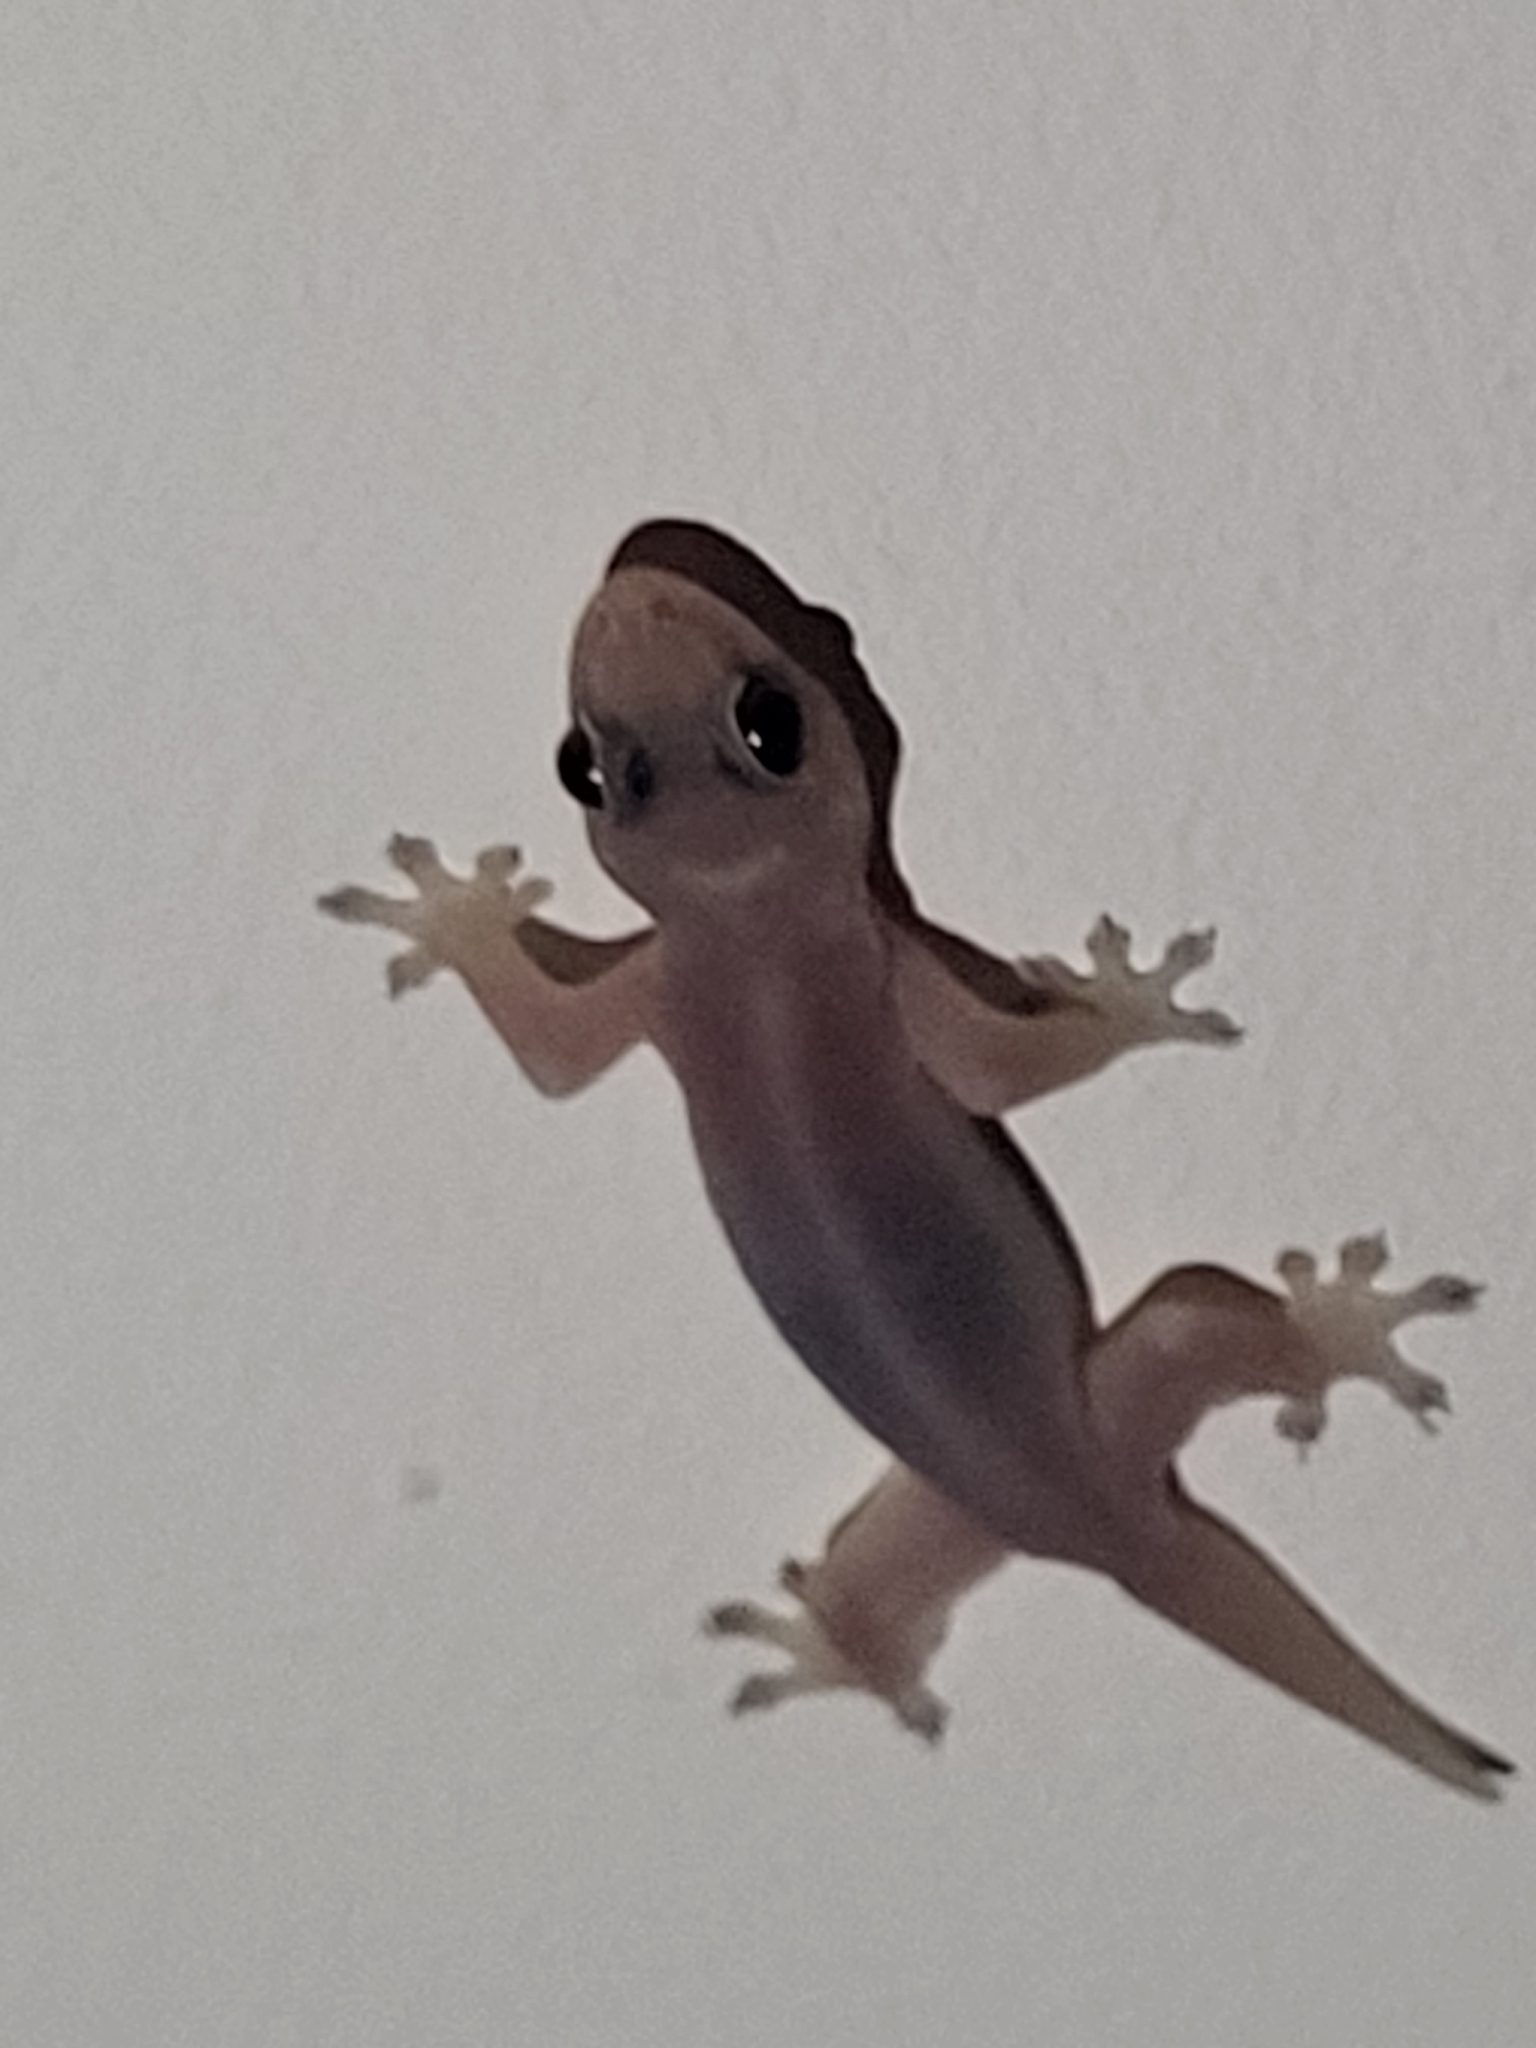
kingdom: Animalia
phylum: Chordata
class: Squamata
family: Gekkonidae
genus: Gehyra
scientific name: Gehyra mutilata
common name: Stump-toed gecko
